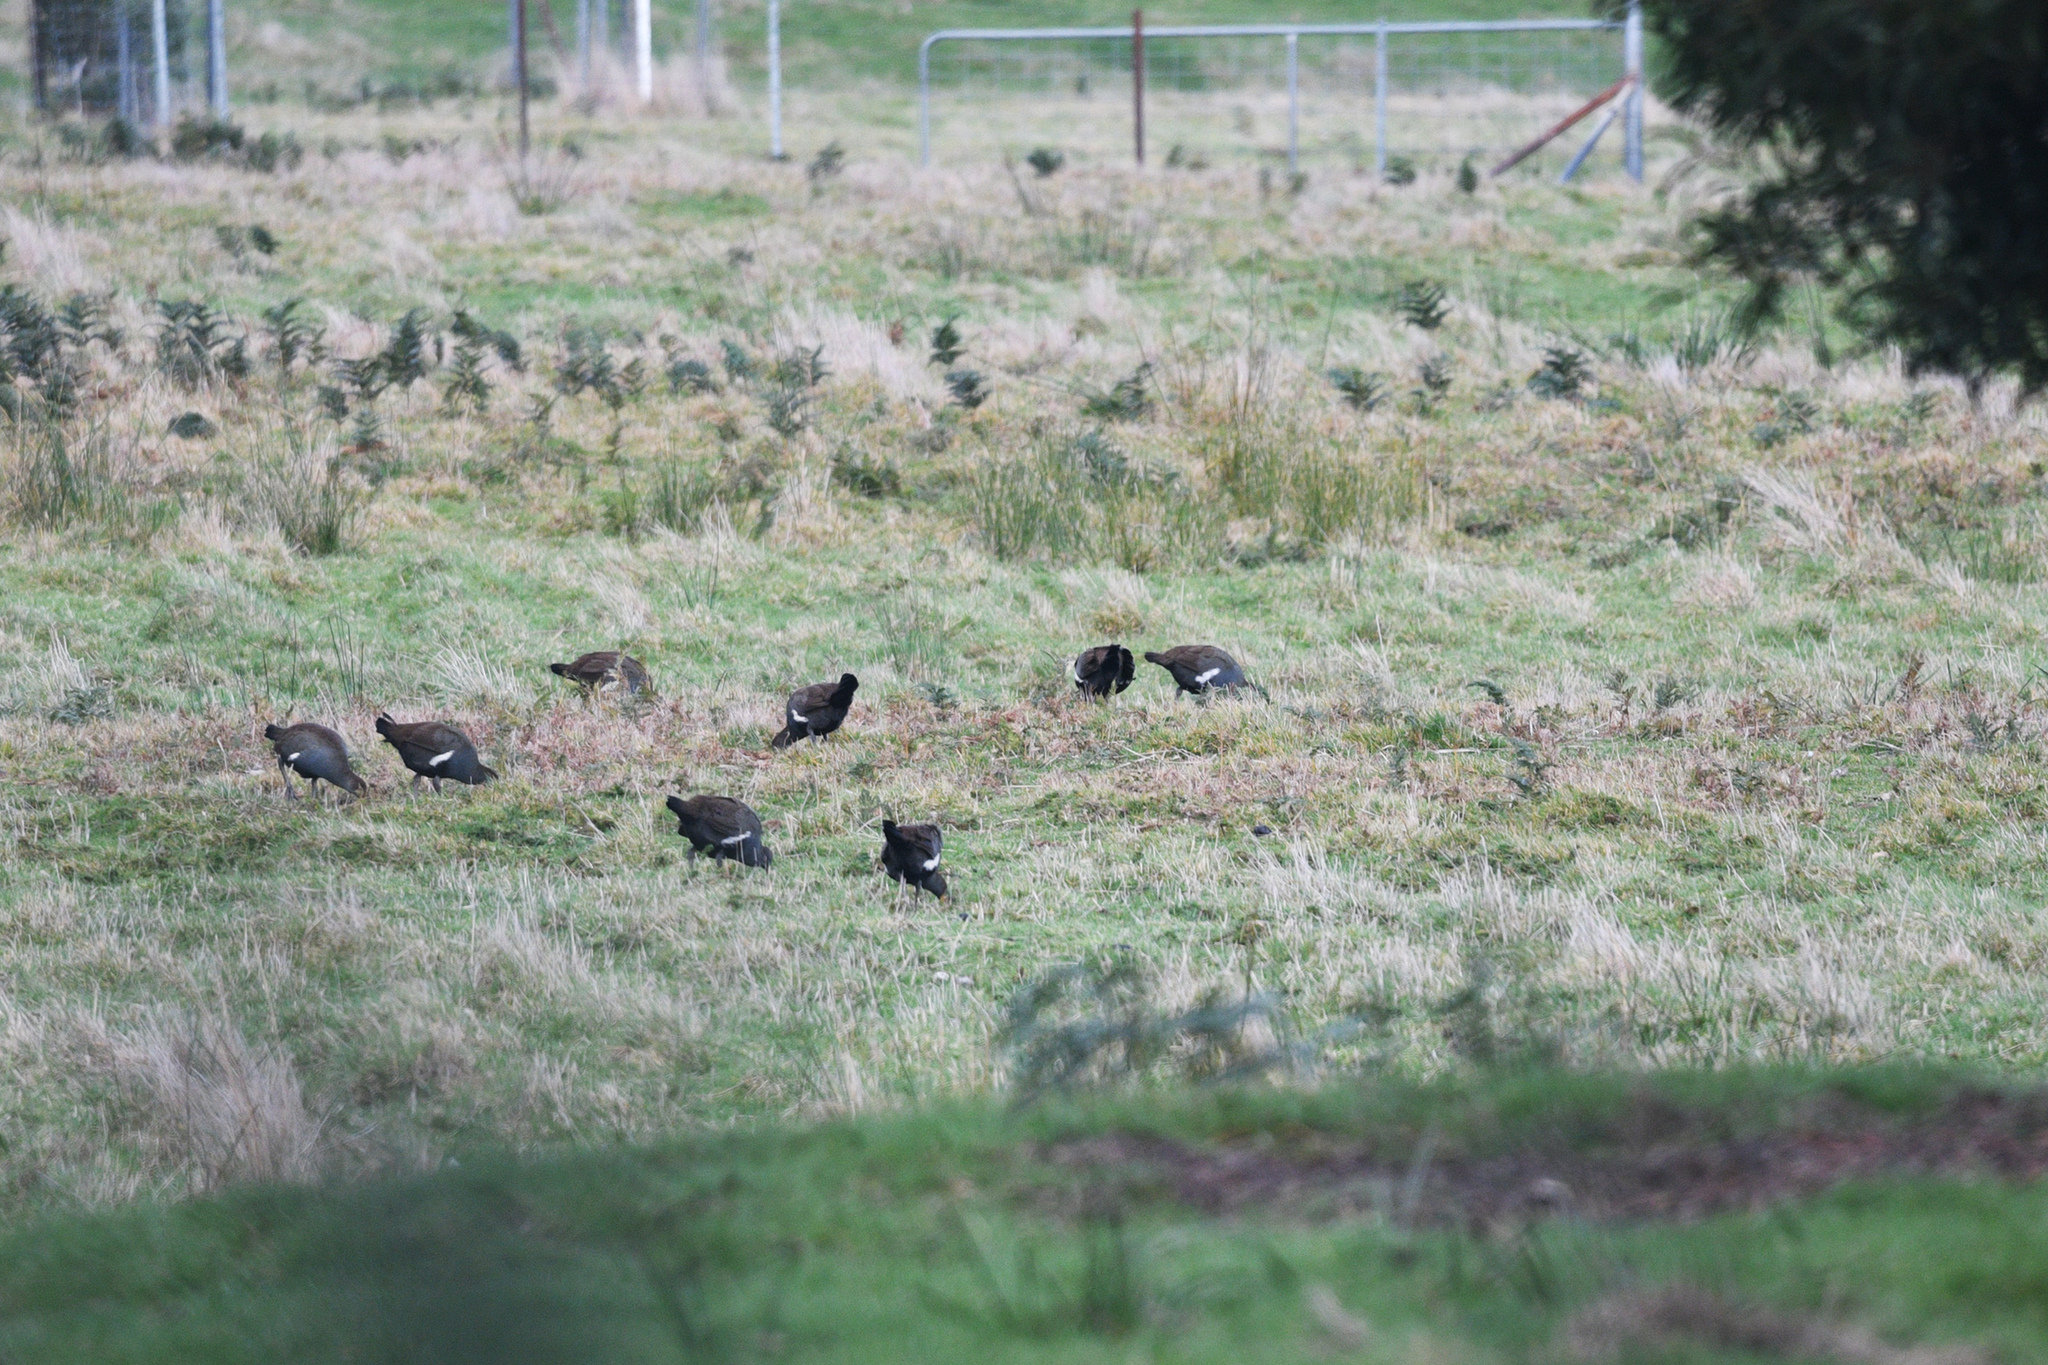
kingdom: Animalia
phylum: Chordata
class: Aves
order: Gruiformes
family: Rallidae
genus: Gallinula
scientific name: Gallinula mortierii
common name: Tasmanian nativehen
